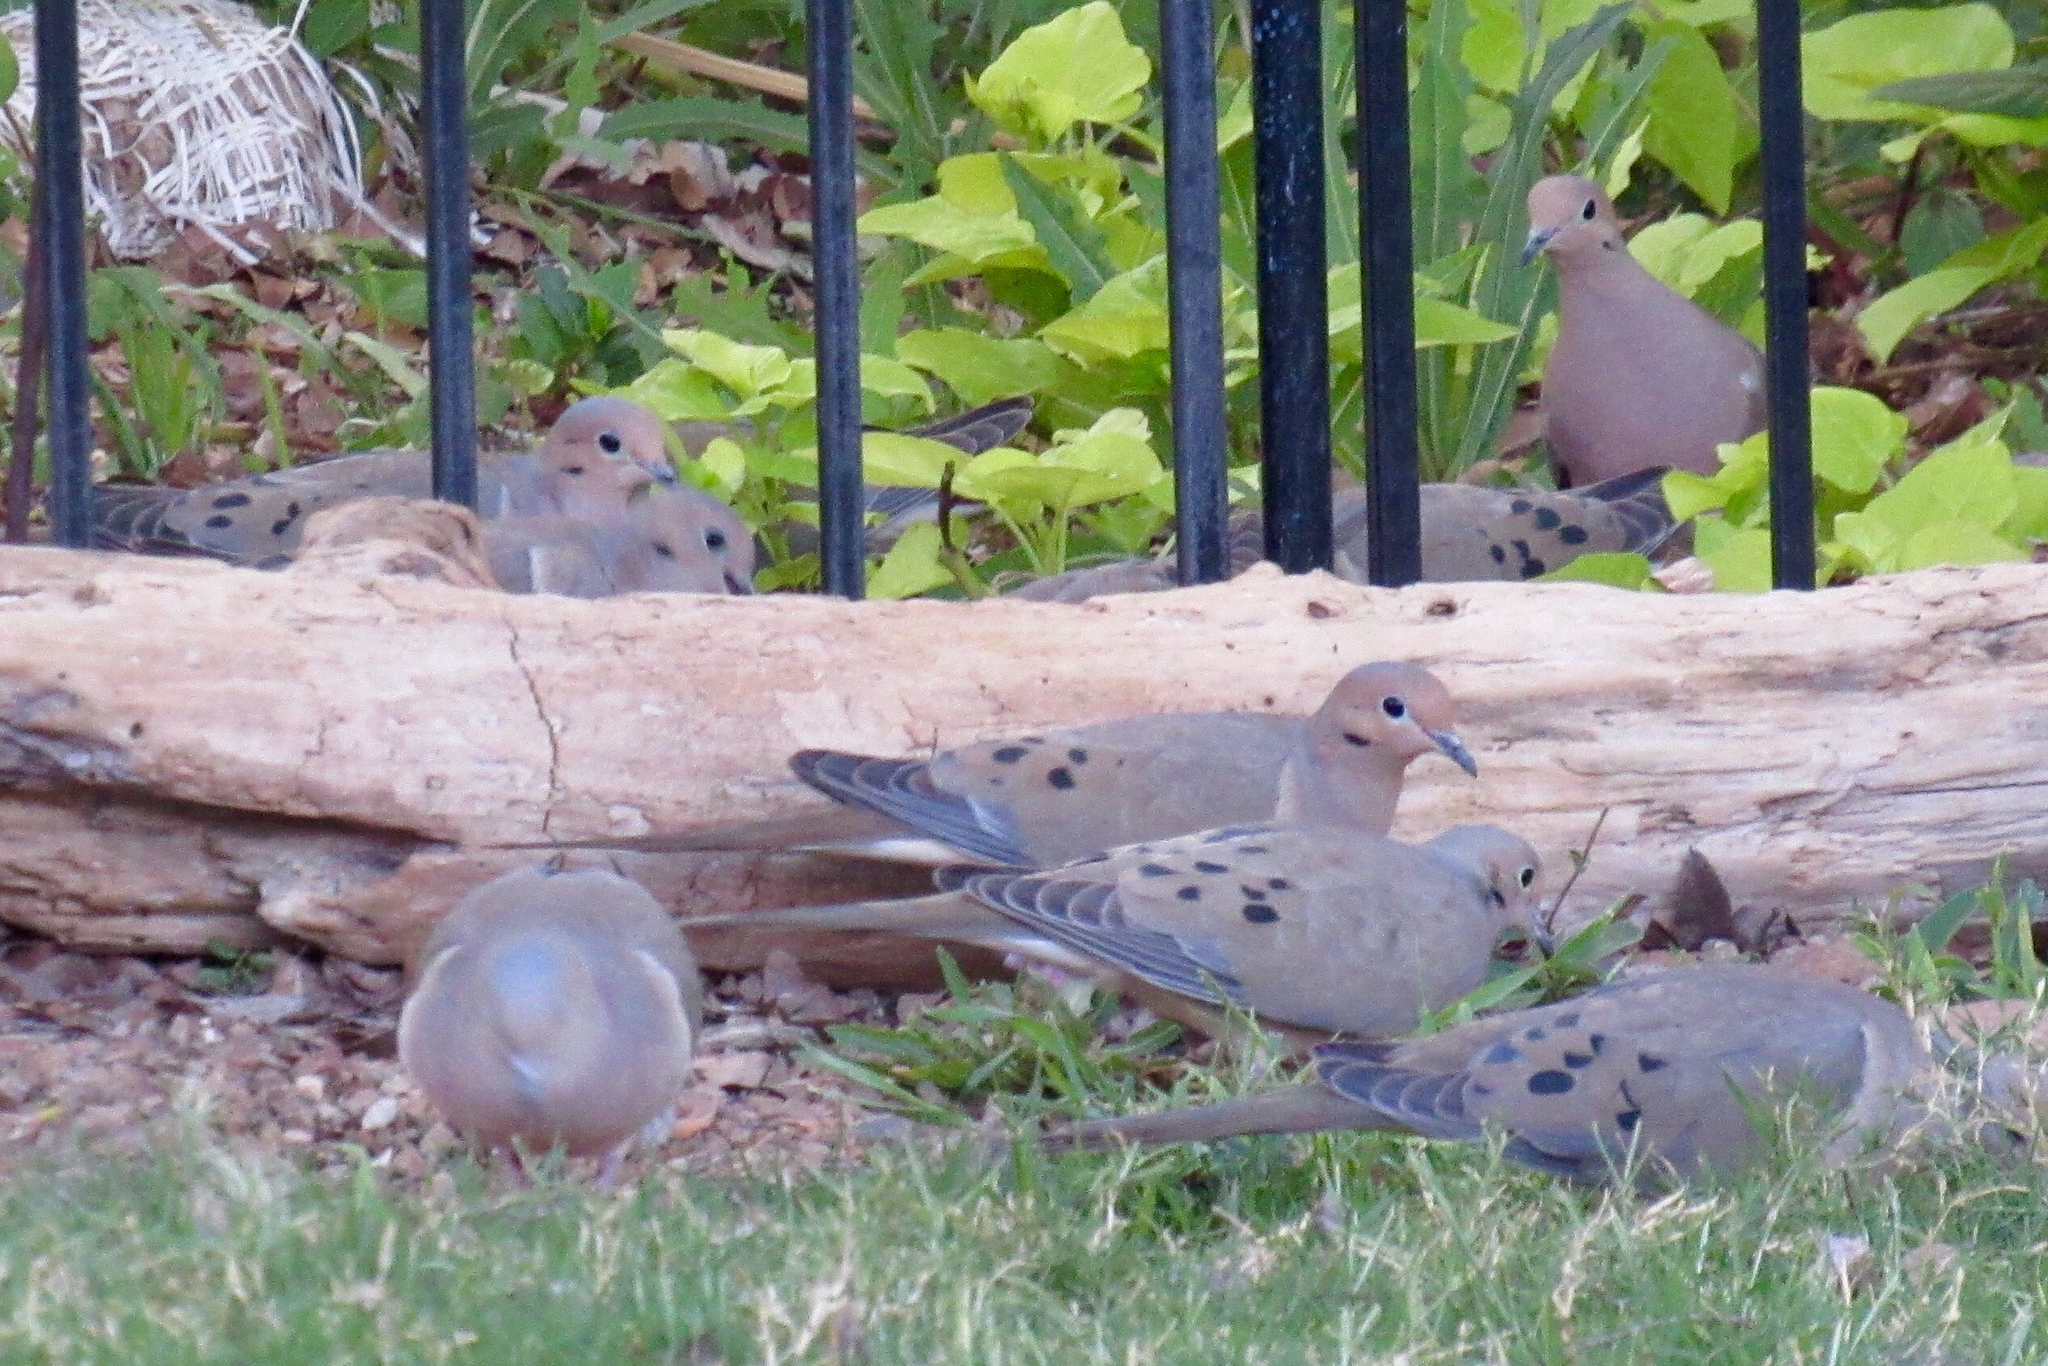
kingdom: Animalia
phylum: Chordata
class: Aves
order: Columbiformes
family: Columbidae
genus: Zenaida
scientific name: Zenaida macroura
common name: Mourning dove
